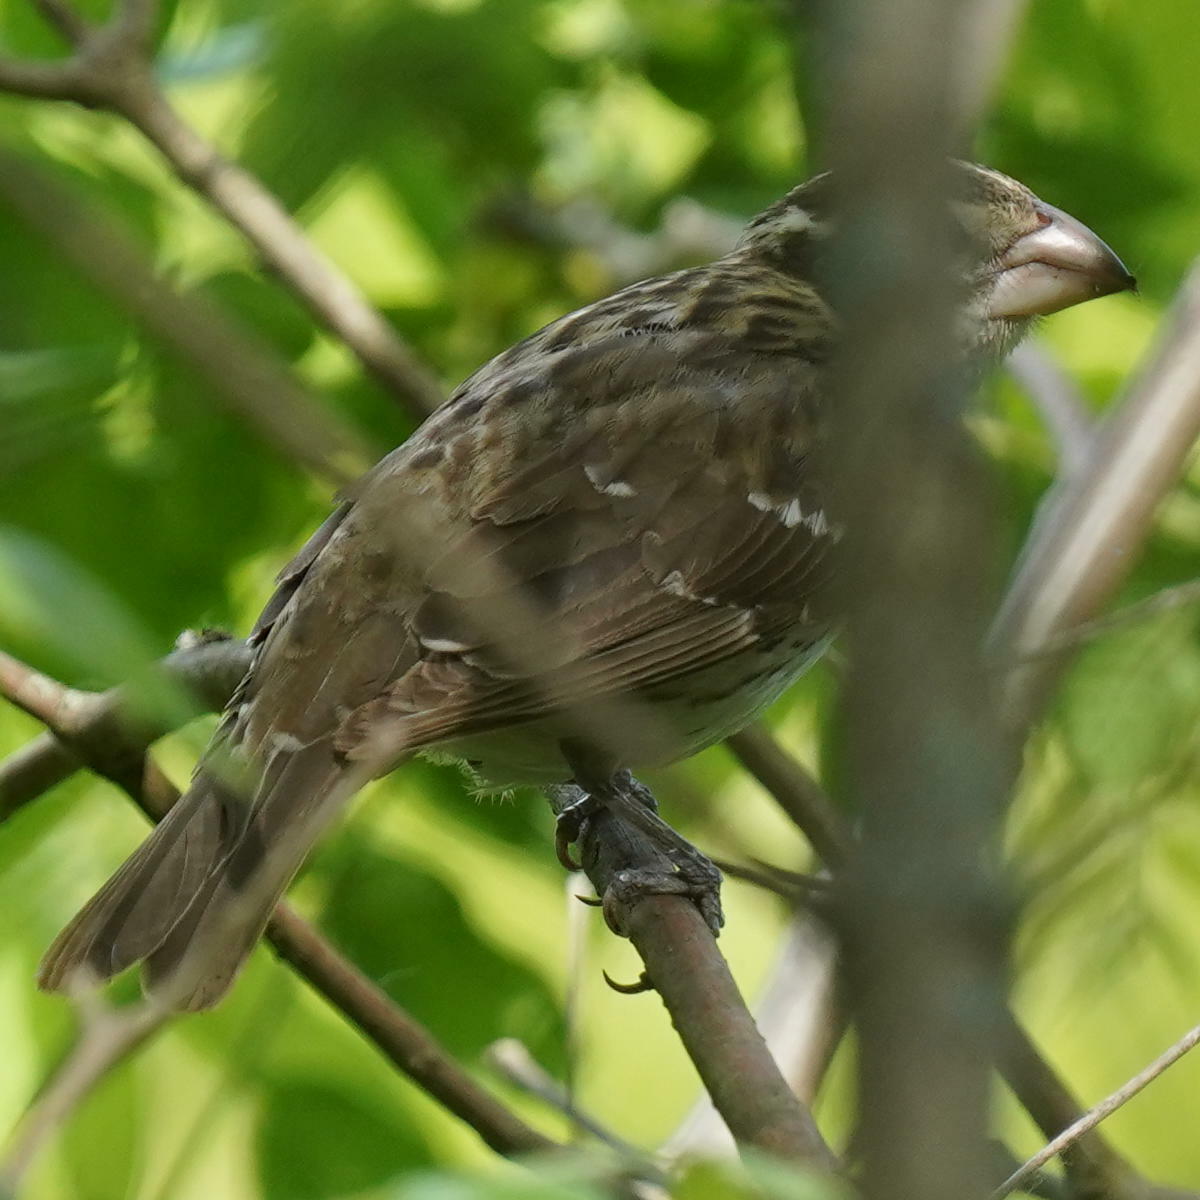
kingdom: Animalia
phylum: Chordata
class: Aves
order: Passeriformes
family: Cardinalidae
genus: Pheucticus
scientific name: Pheucticus ludovicianus
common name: Rose-breasted grosbeak
